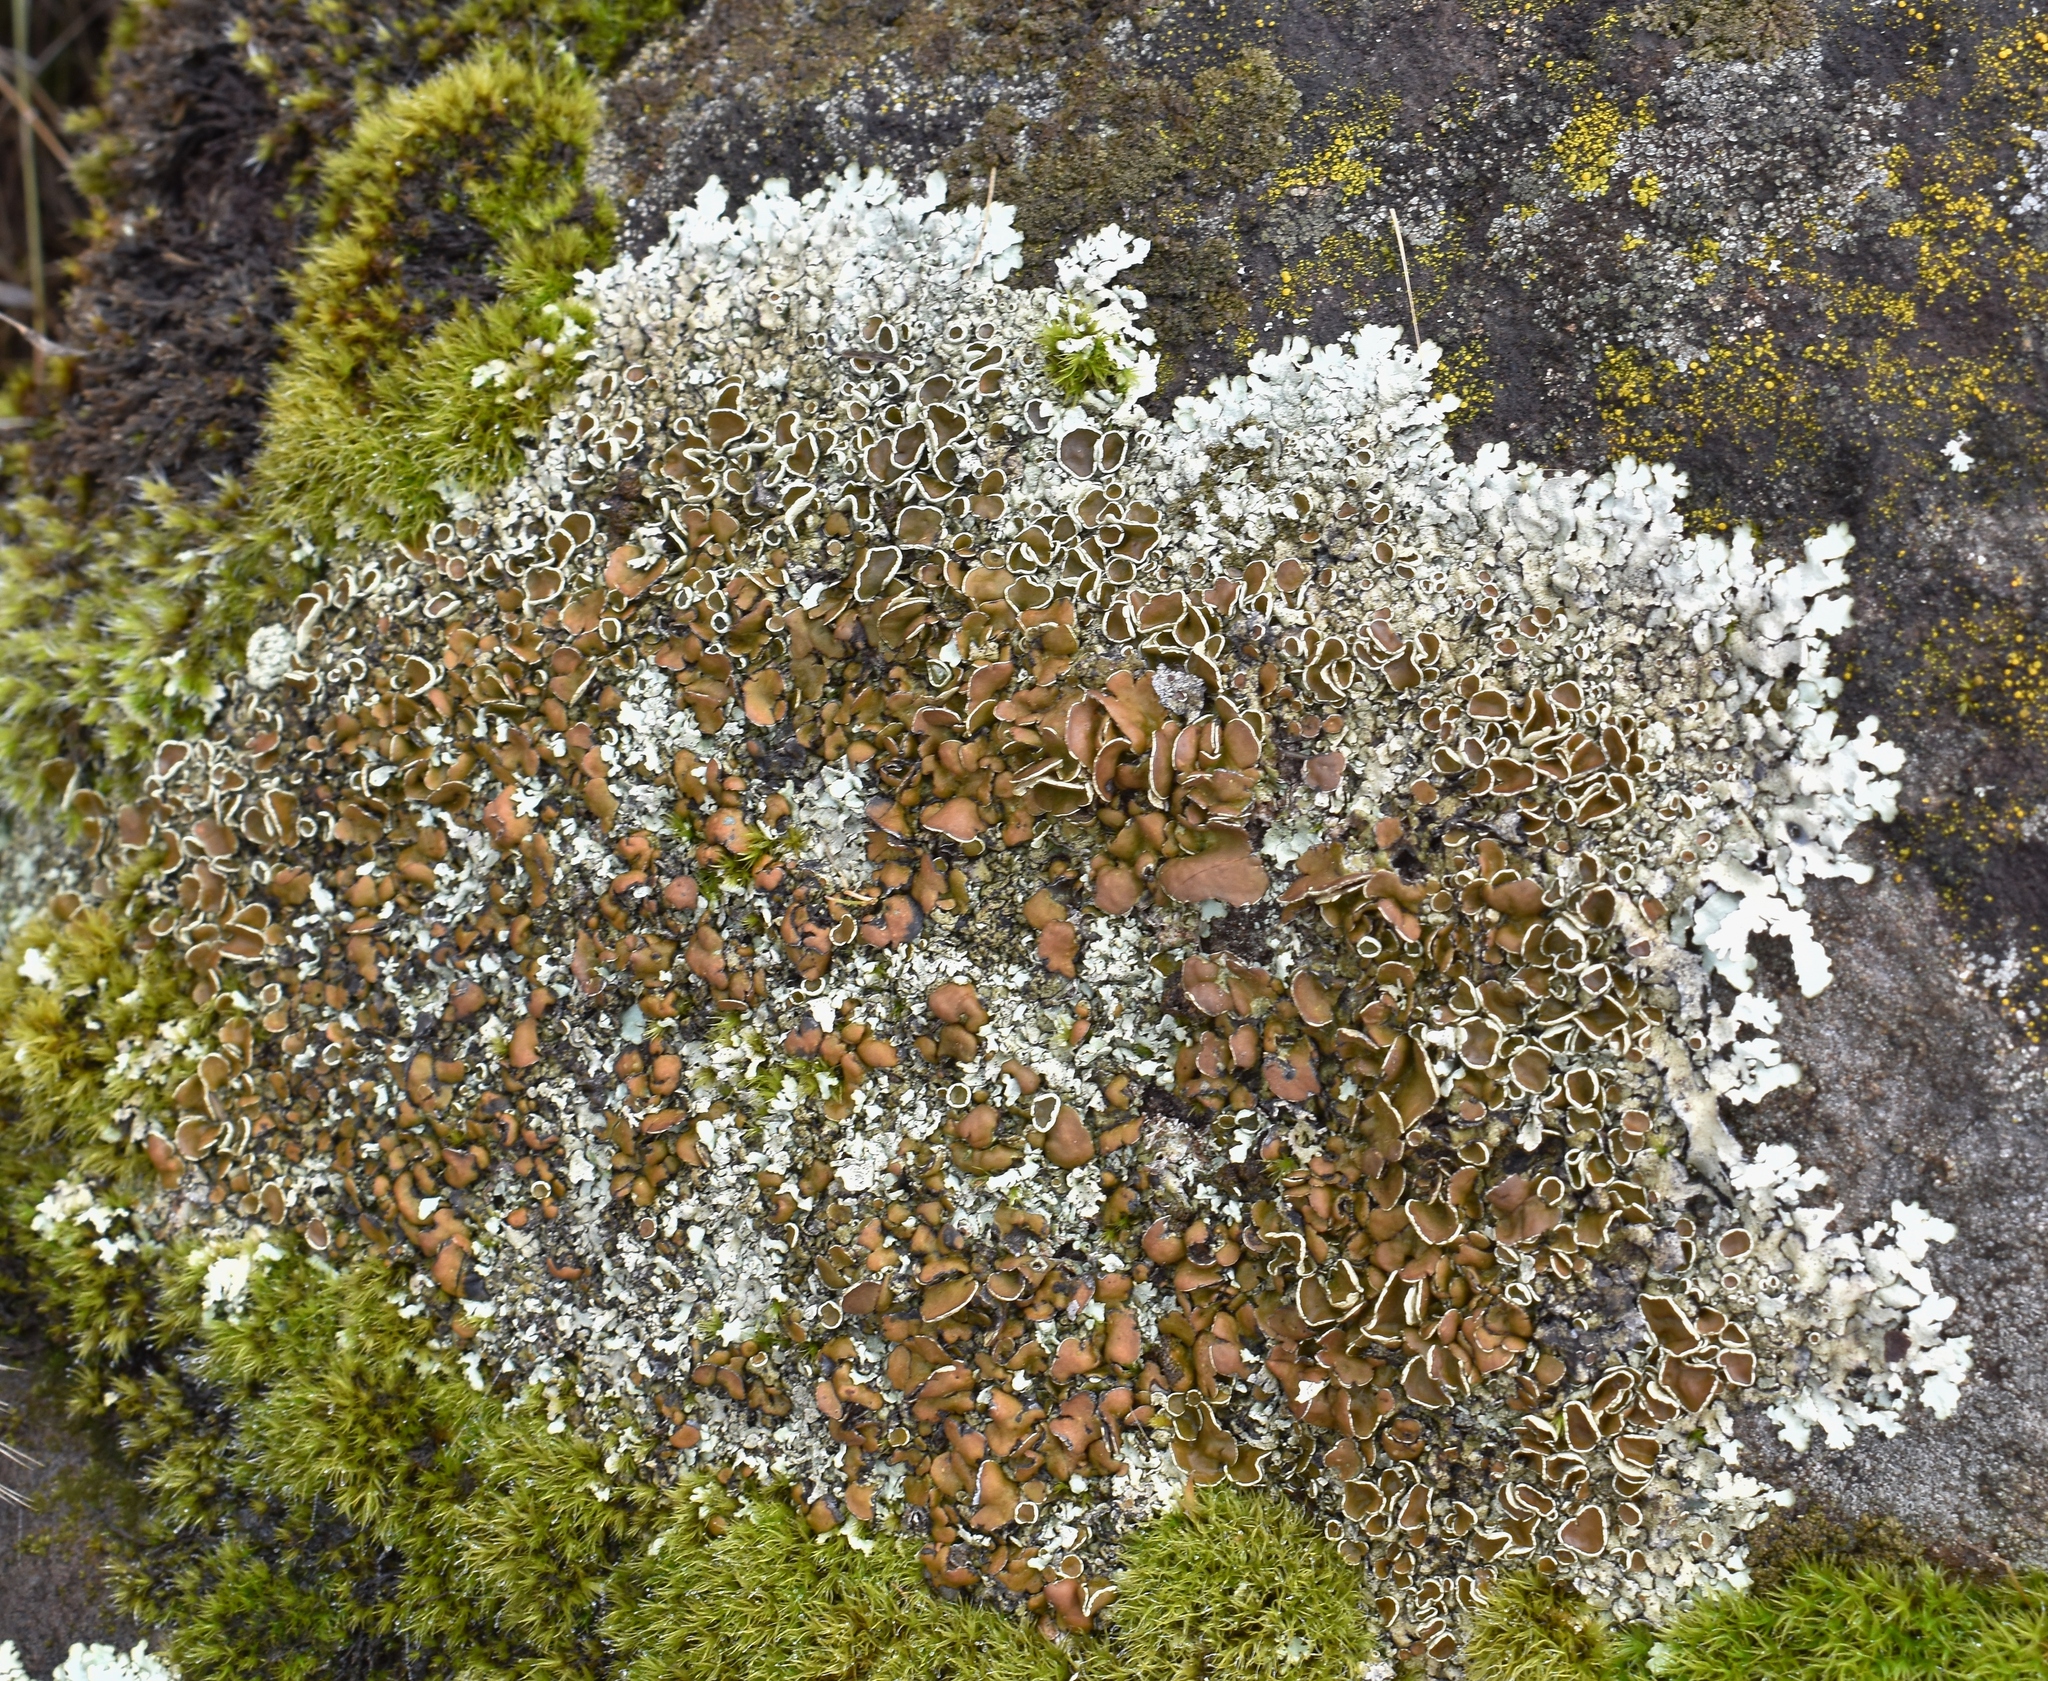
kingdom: Fungi
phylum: Ascomycota
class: Lecanoromycetes
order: Lecanorales
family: Parmeliaceae
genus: Xanthoparmelia
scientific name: Xanthoparmelia cumberlandia
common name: Cumberland rock shield
